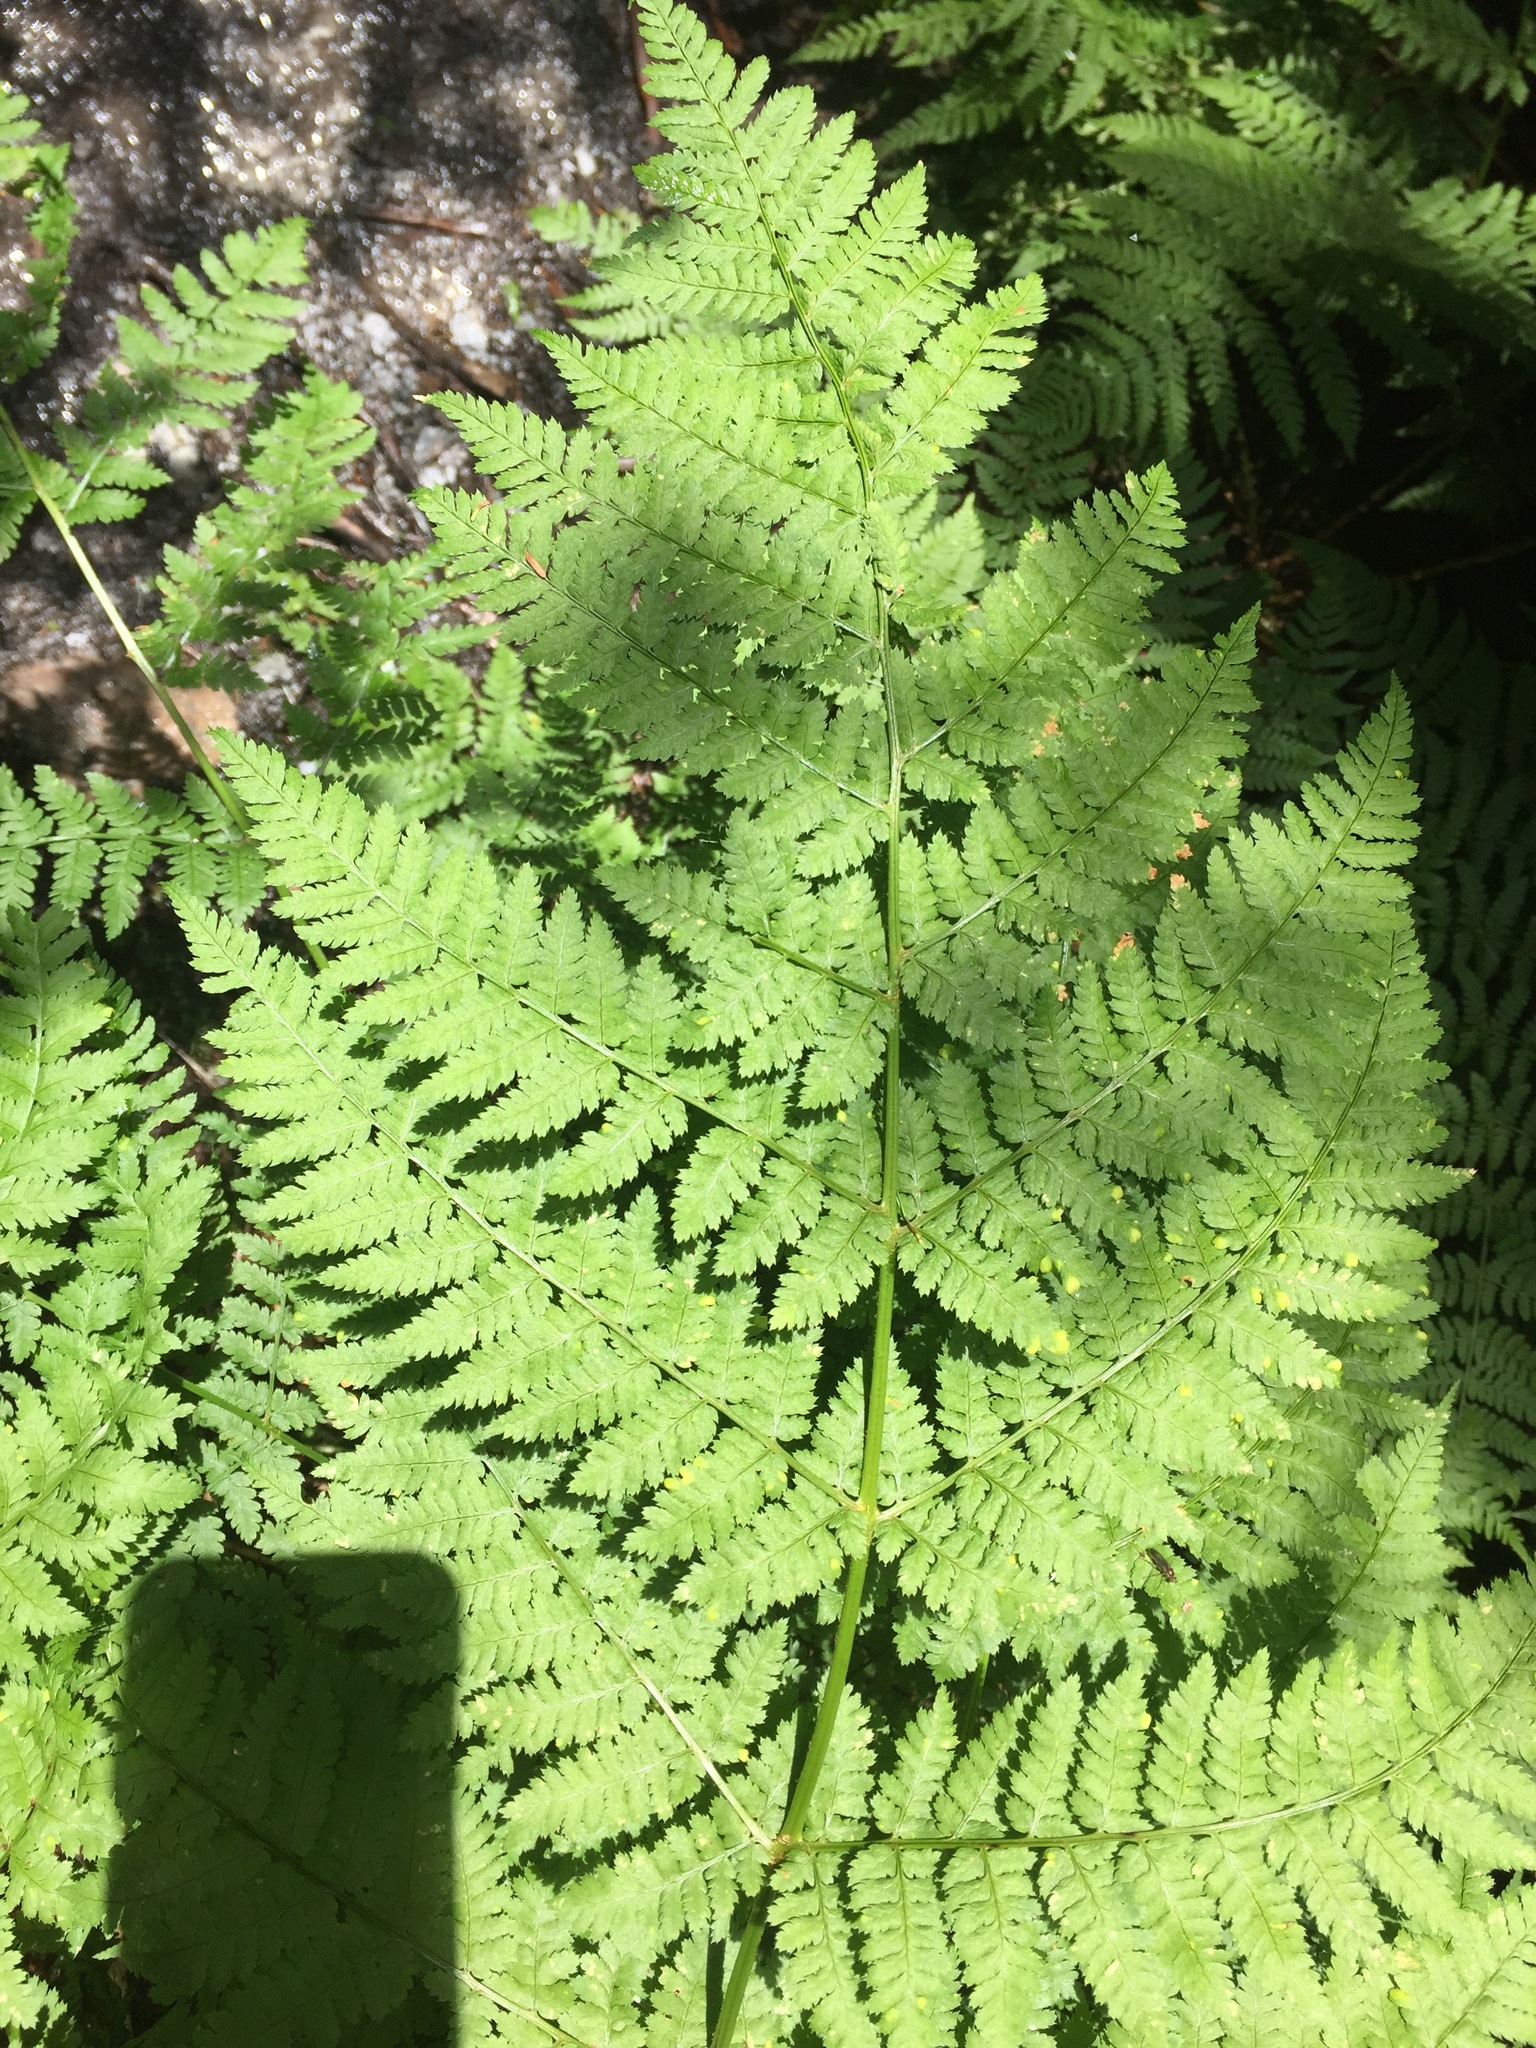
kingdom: Plantae
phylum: Tracheophyta
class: Polypodiopsida
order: Polypodiales
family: Dryopteridaceae
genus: Dryopteris
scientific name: Dryopteris intermedia
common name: Evergreen wood fern
